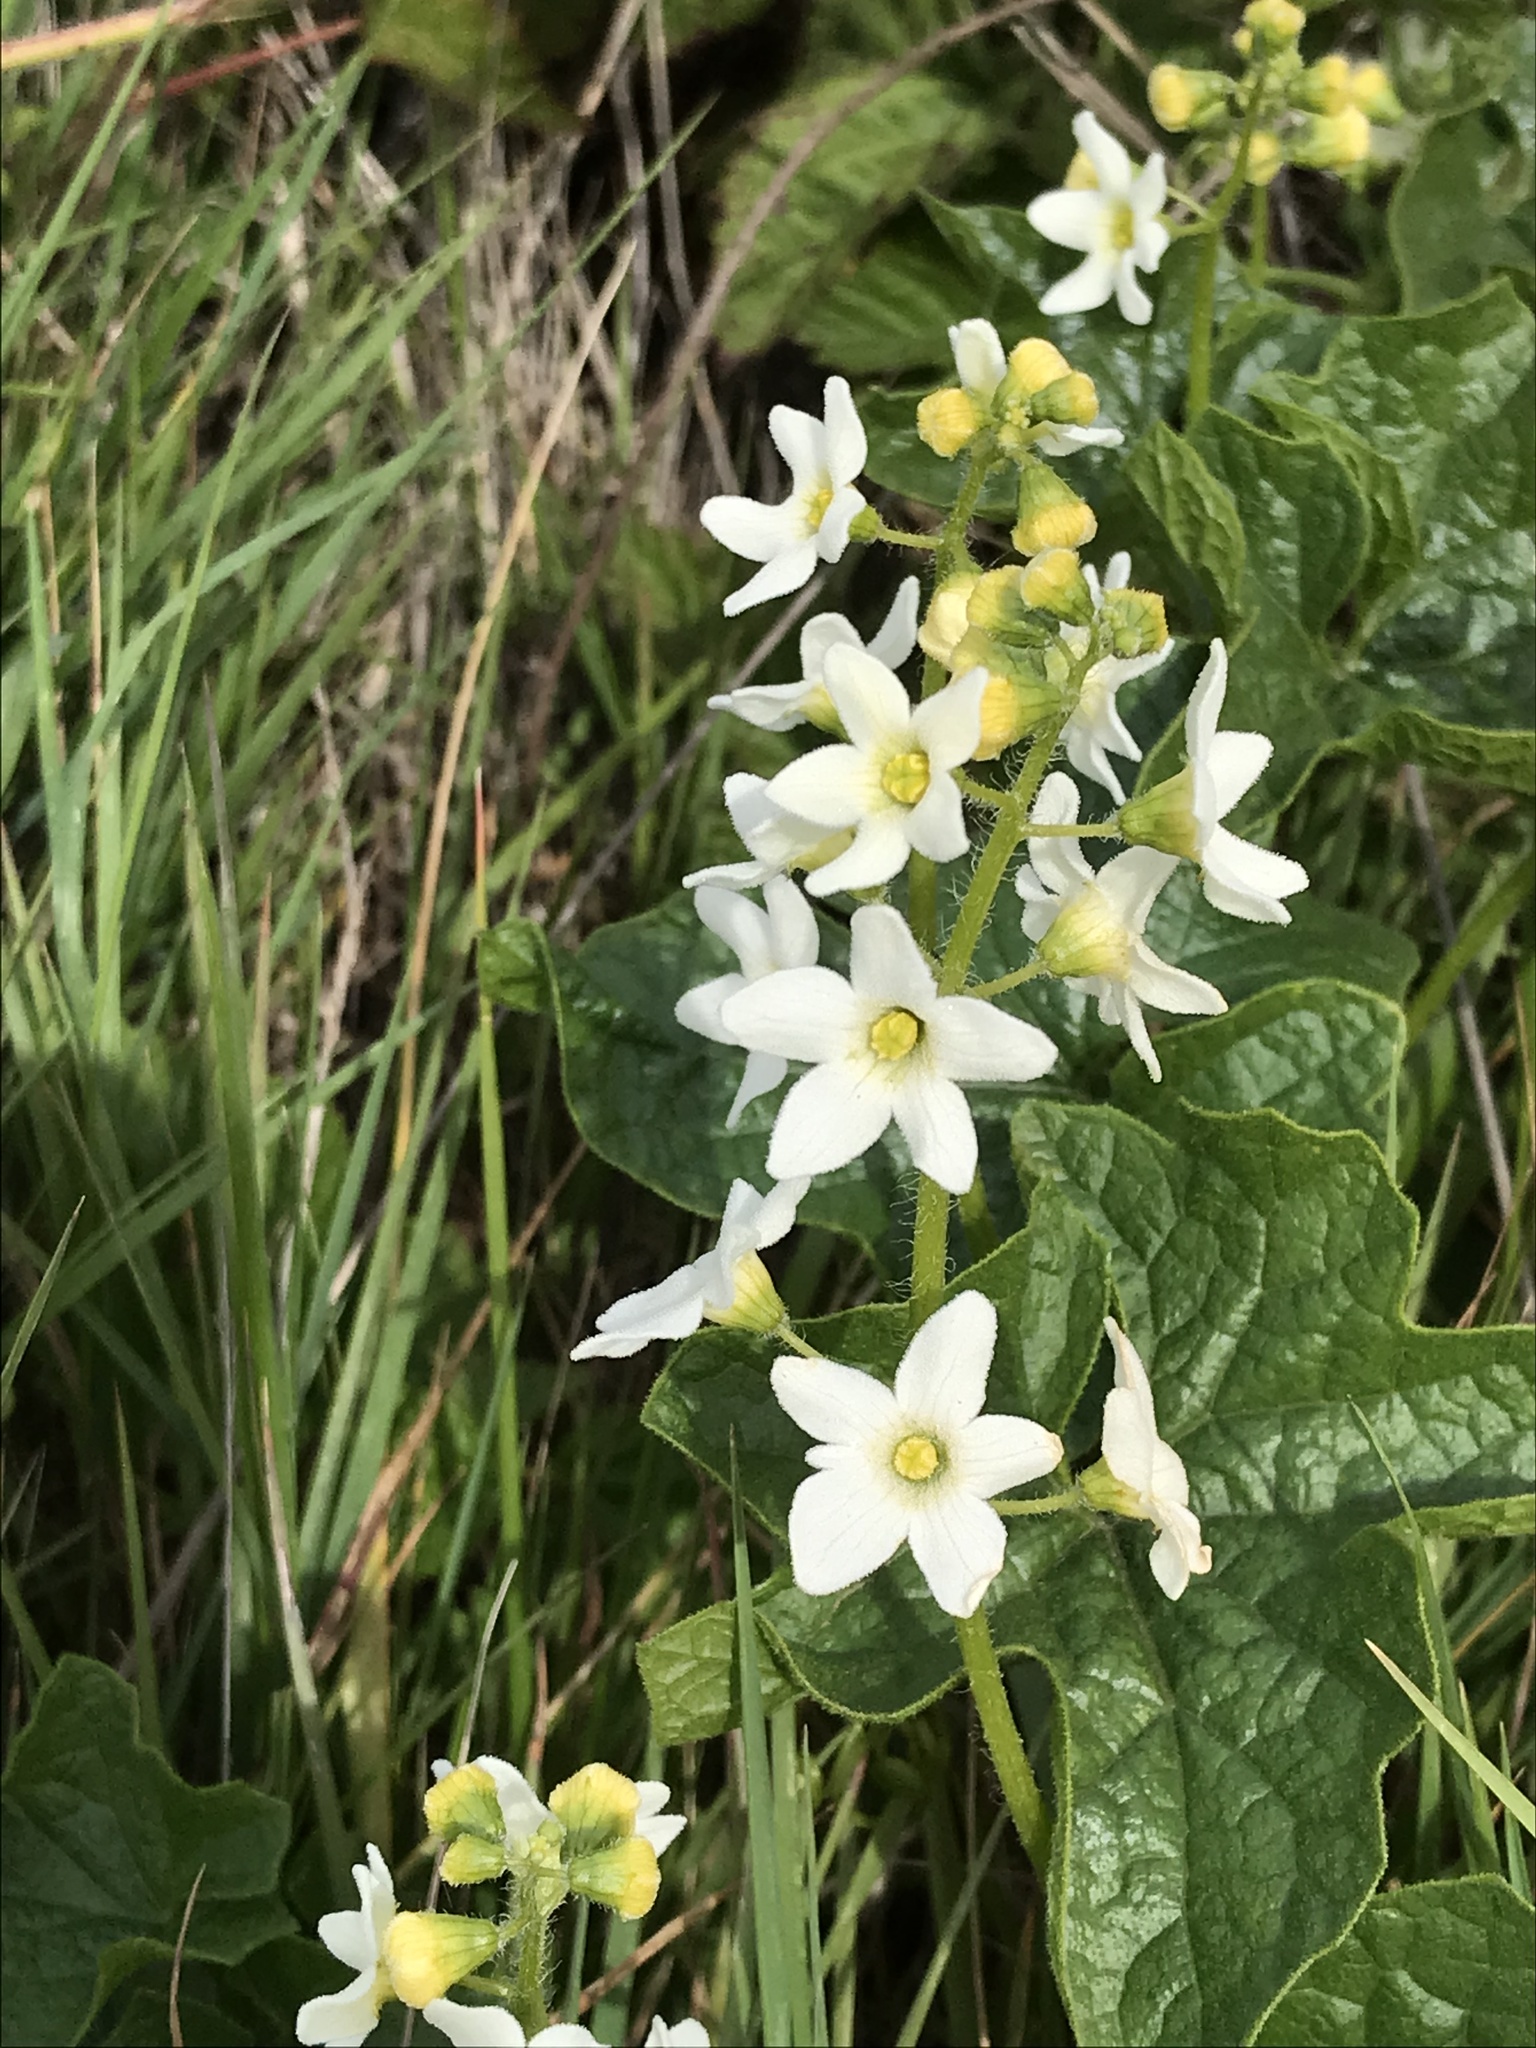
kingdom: Plantae
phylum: Tracheophyta
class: Magnoliopsida
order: Cucurbitales
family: Cucurbitaceae
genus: Marah
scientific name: Marah oregana
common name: Coastal manroot
